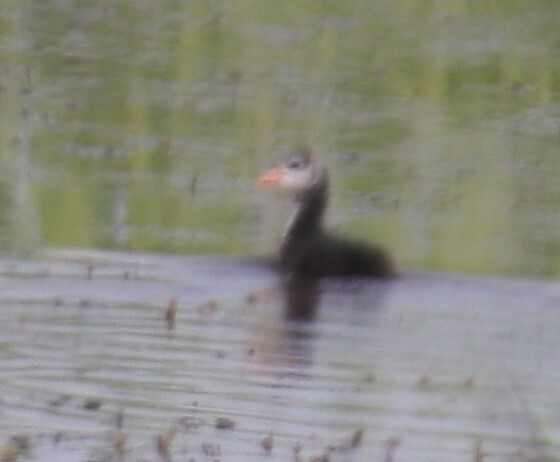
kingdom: Animalia
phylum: Chordata
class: Aves
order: Gruiformes
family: Rallidae
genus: Fulica
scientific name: Fulica americana
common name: American coot
